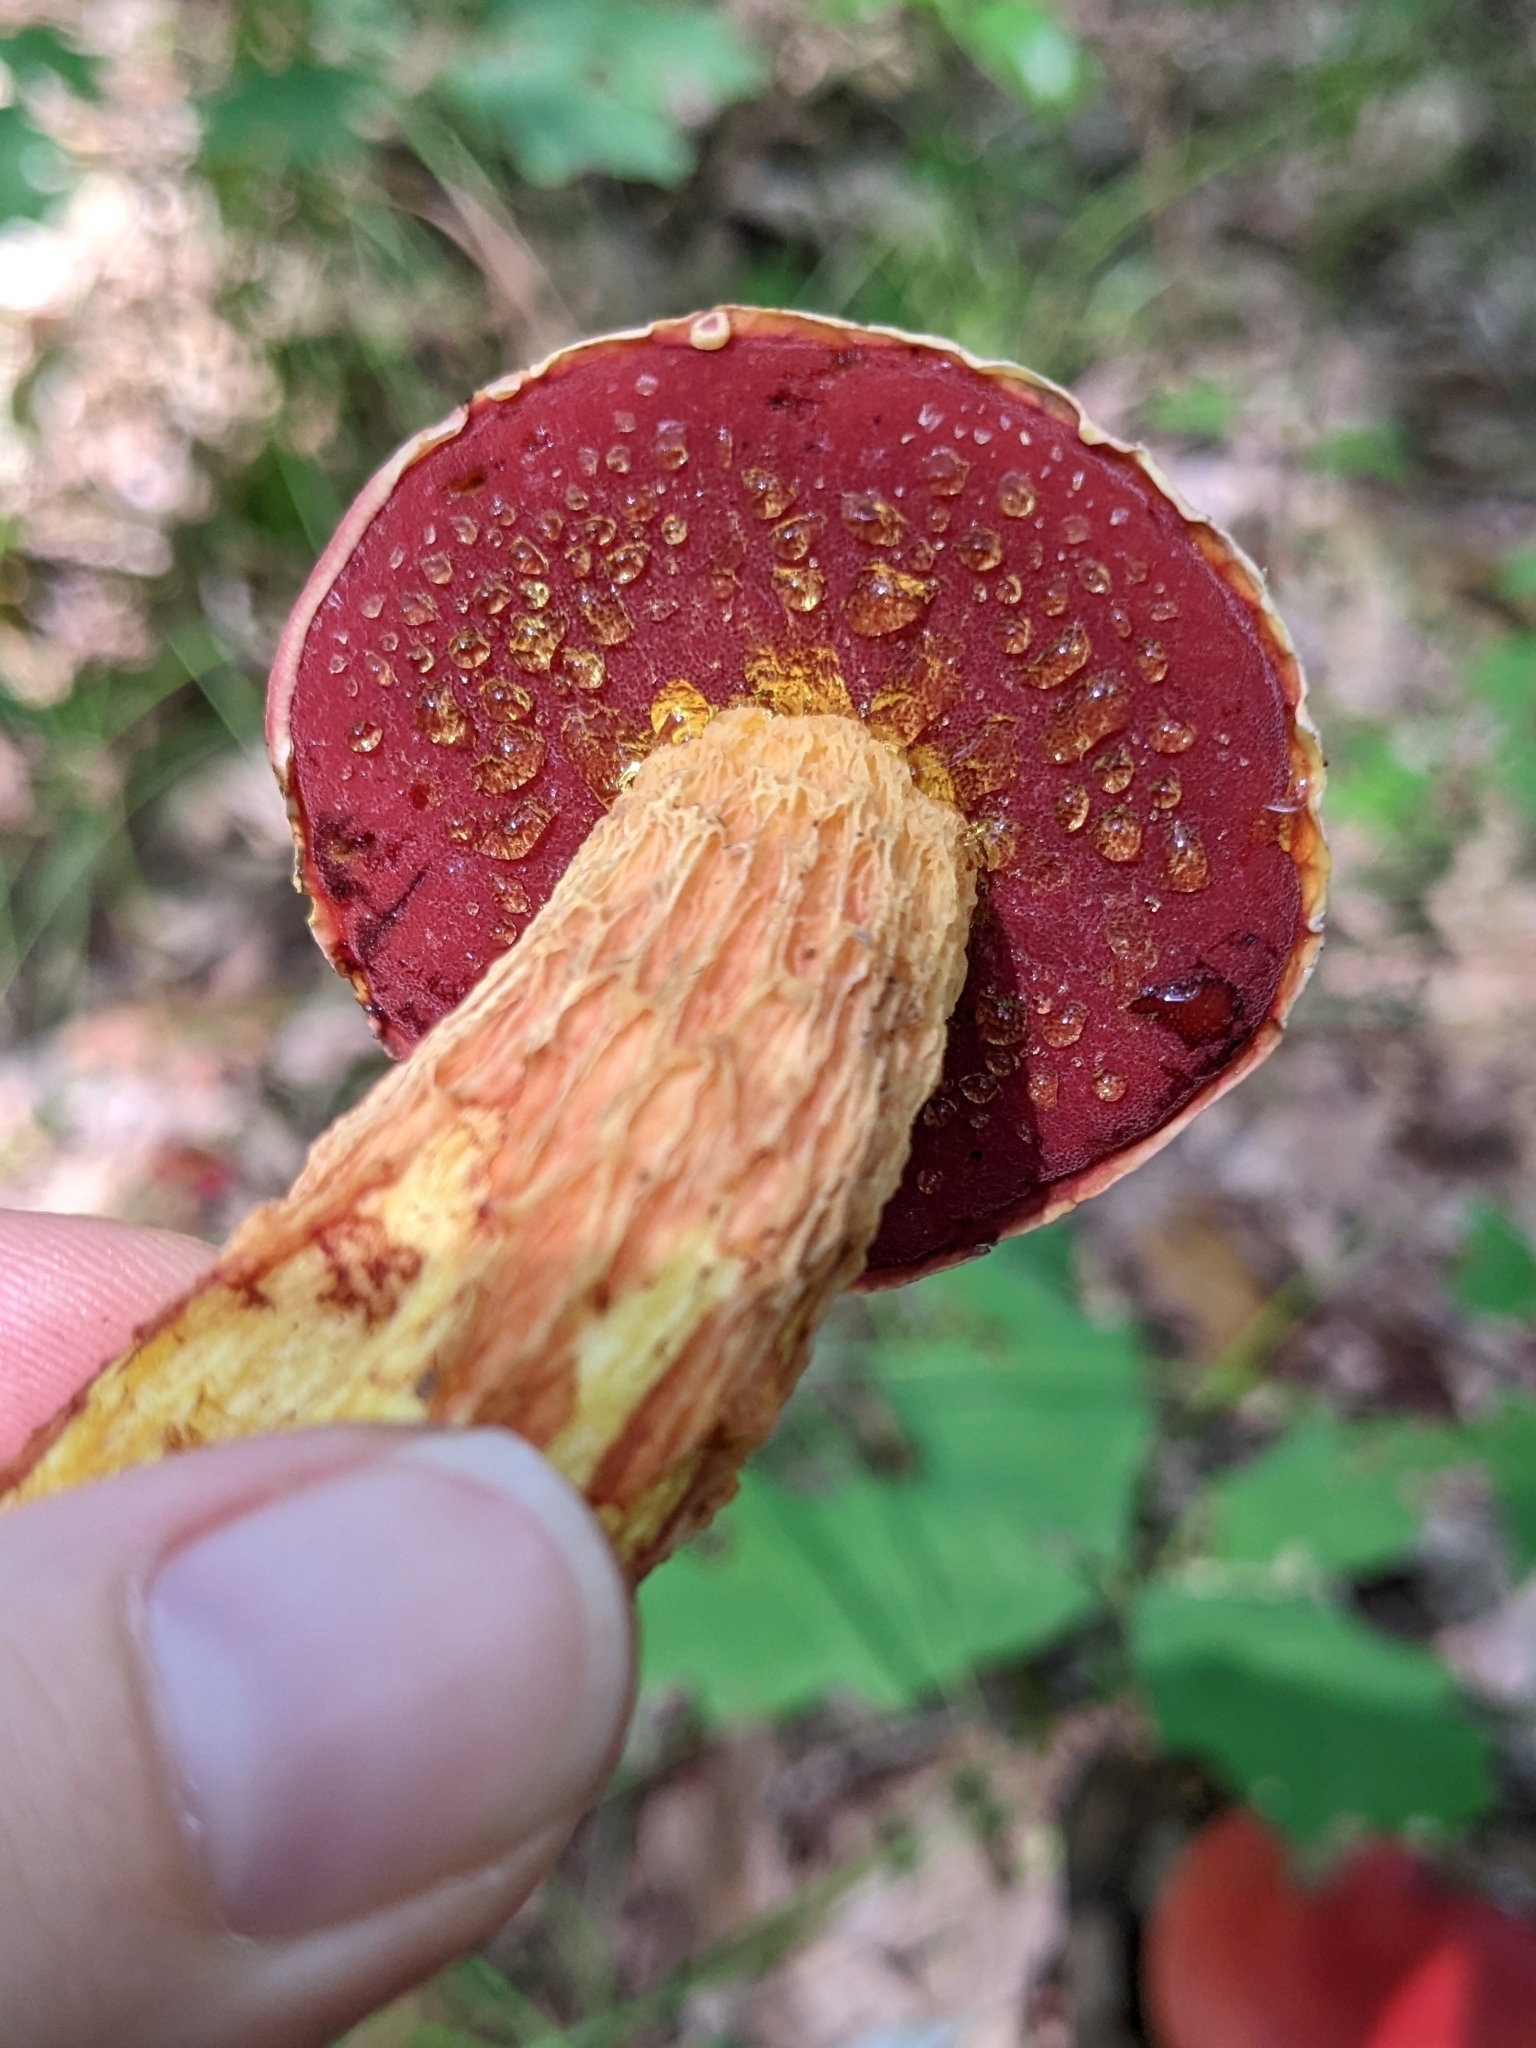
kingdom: Fungi
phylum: Basidiomycota
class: Agaricomycetes
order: Boletales
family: Boletaceae
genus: Butyriboletus
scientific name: Butyriboletus frostii
